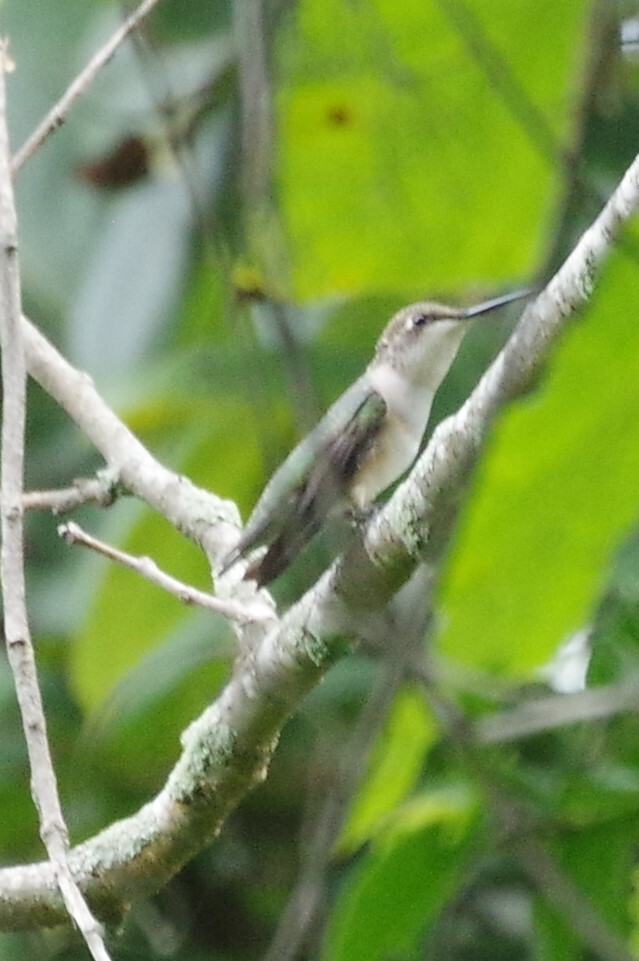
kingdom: Animalia
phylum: Chordata
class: Aves
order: Apodiformes
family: Trochilidae
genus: Archilochus
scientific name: Archilochus colubris
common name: Ruby-throated hummingbird
